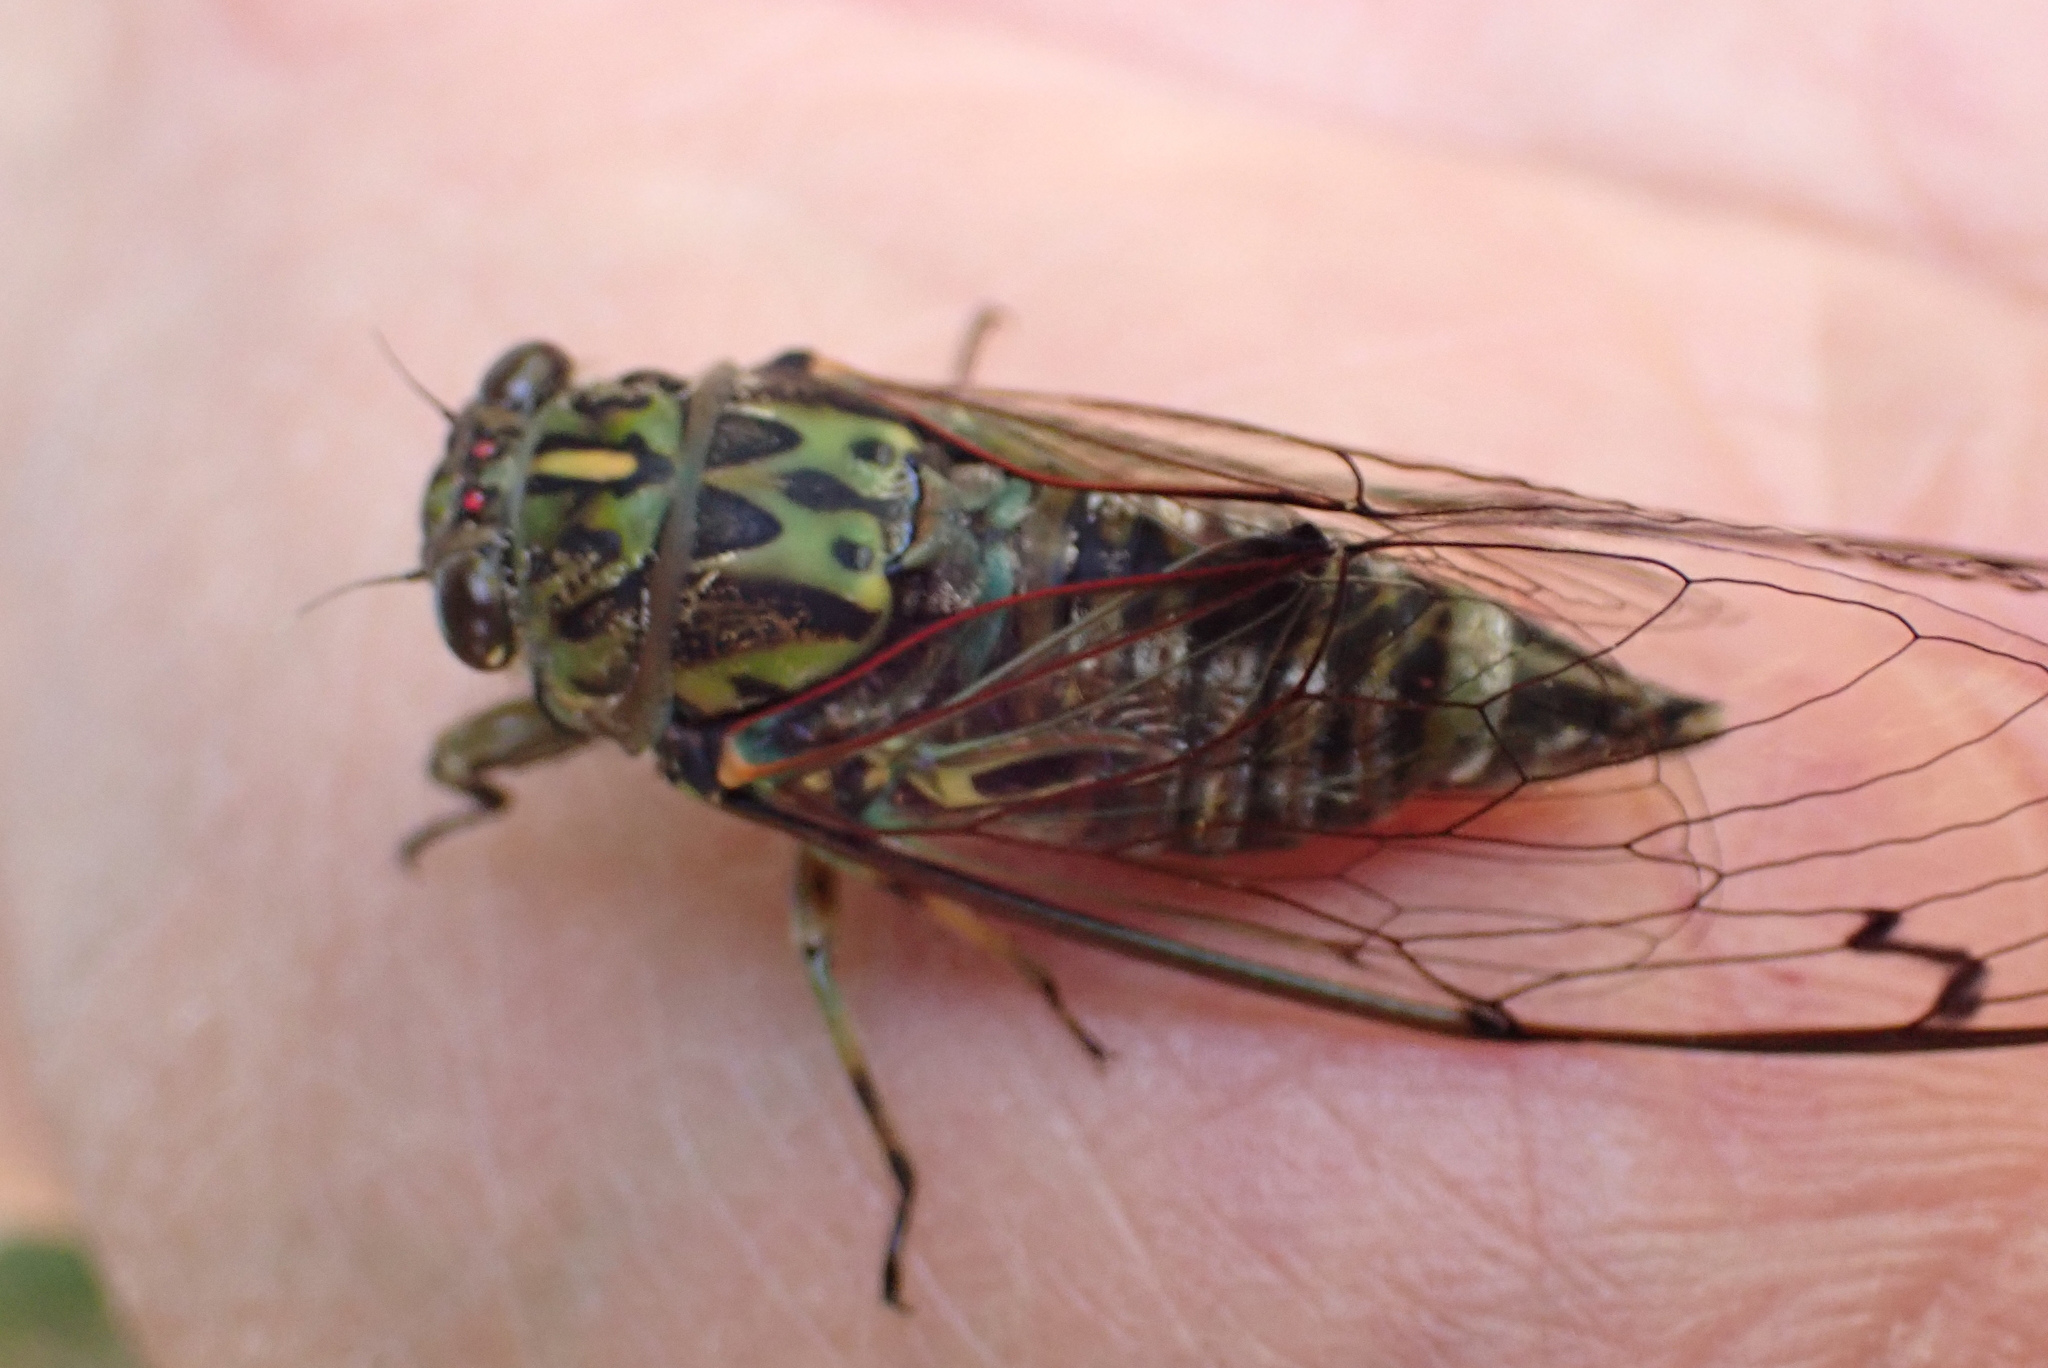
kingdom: Animalia
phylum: Arthropoda
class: Insecta
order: Hemiptera
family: Cicadidae
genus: Amphipsalta
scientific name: Amphipsalta zelandica
